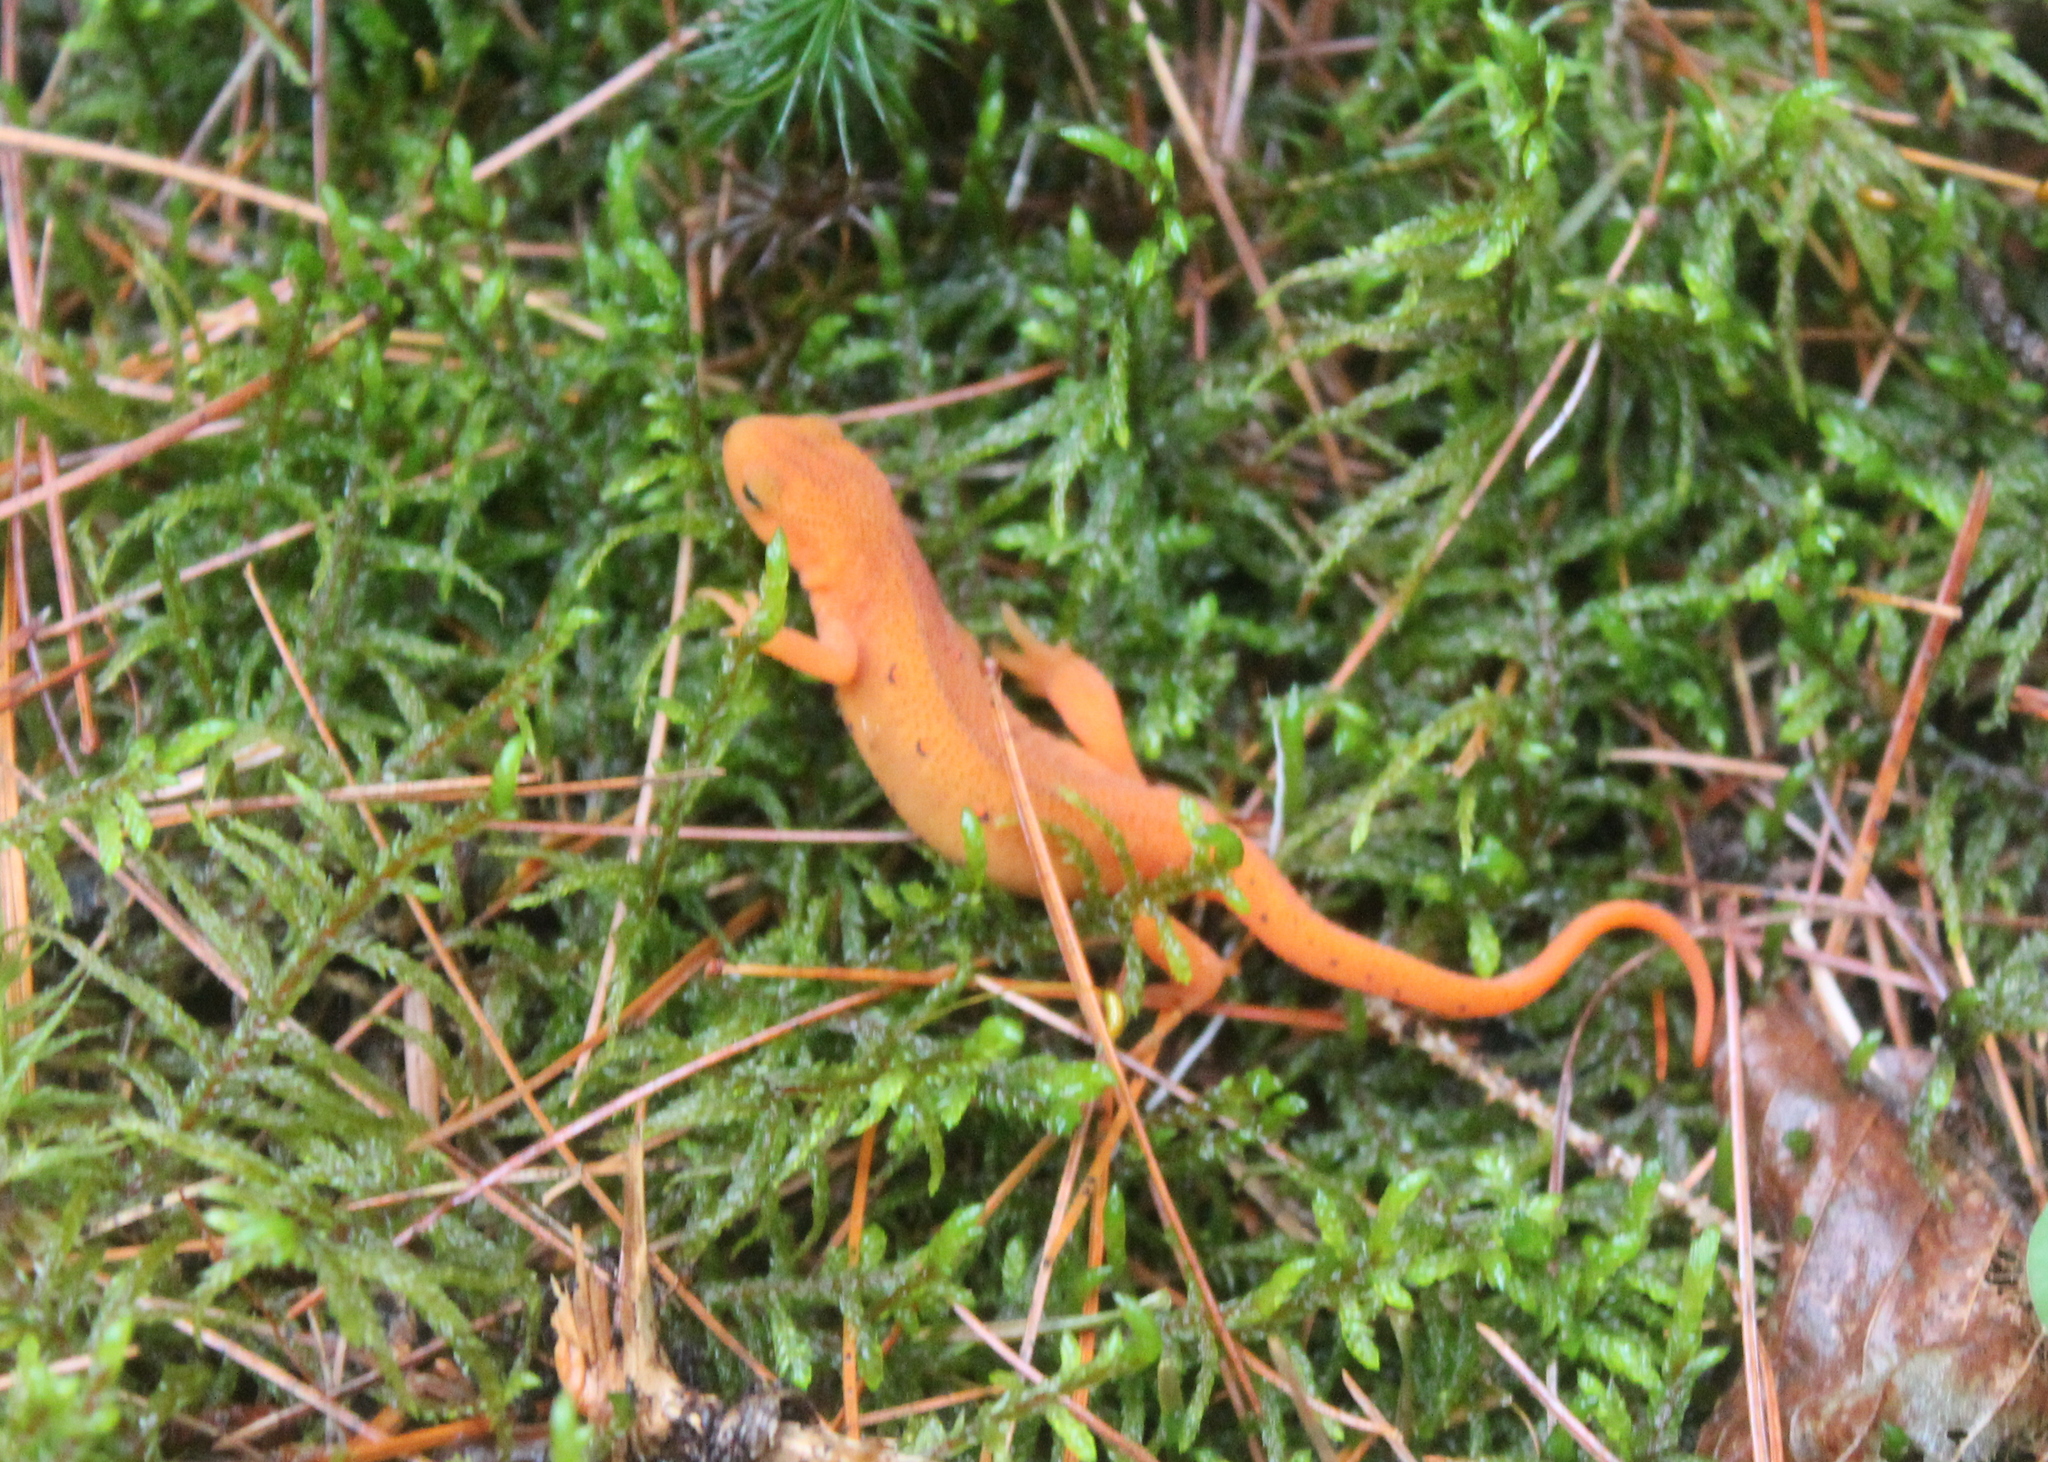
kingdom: Animalia
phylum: Chordata
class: Amphibia
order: Caudata
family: Salamandridae
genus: Notophthalmus
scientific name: Notophthalmus viridescens
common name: Eastern newt
